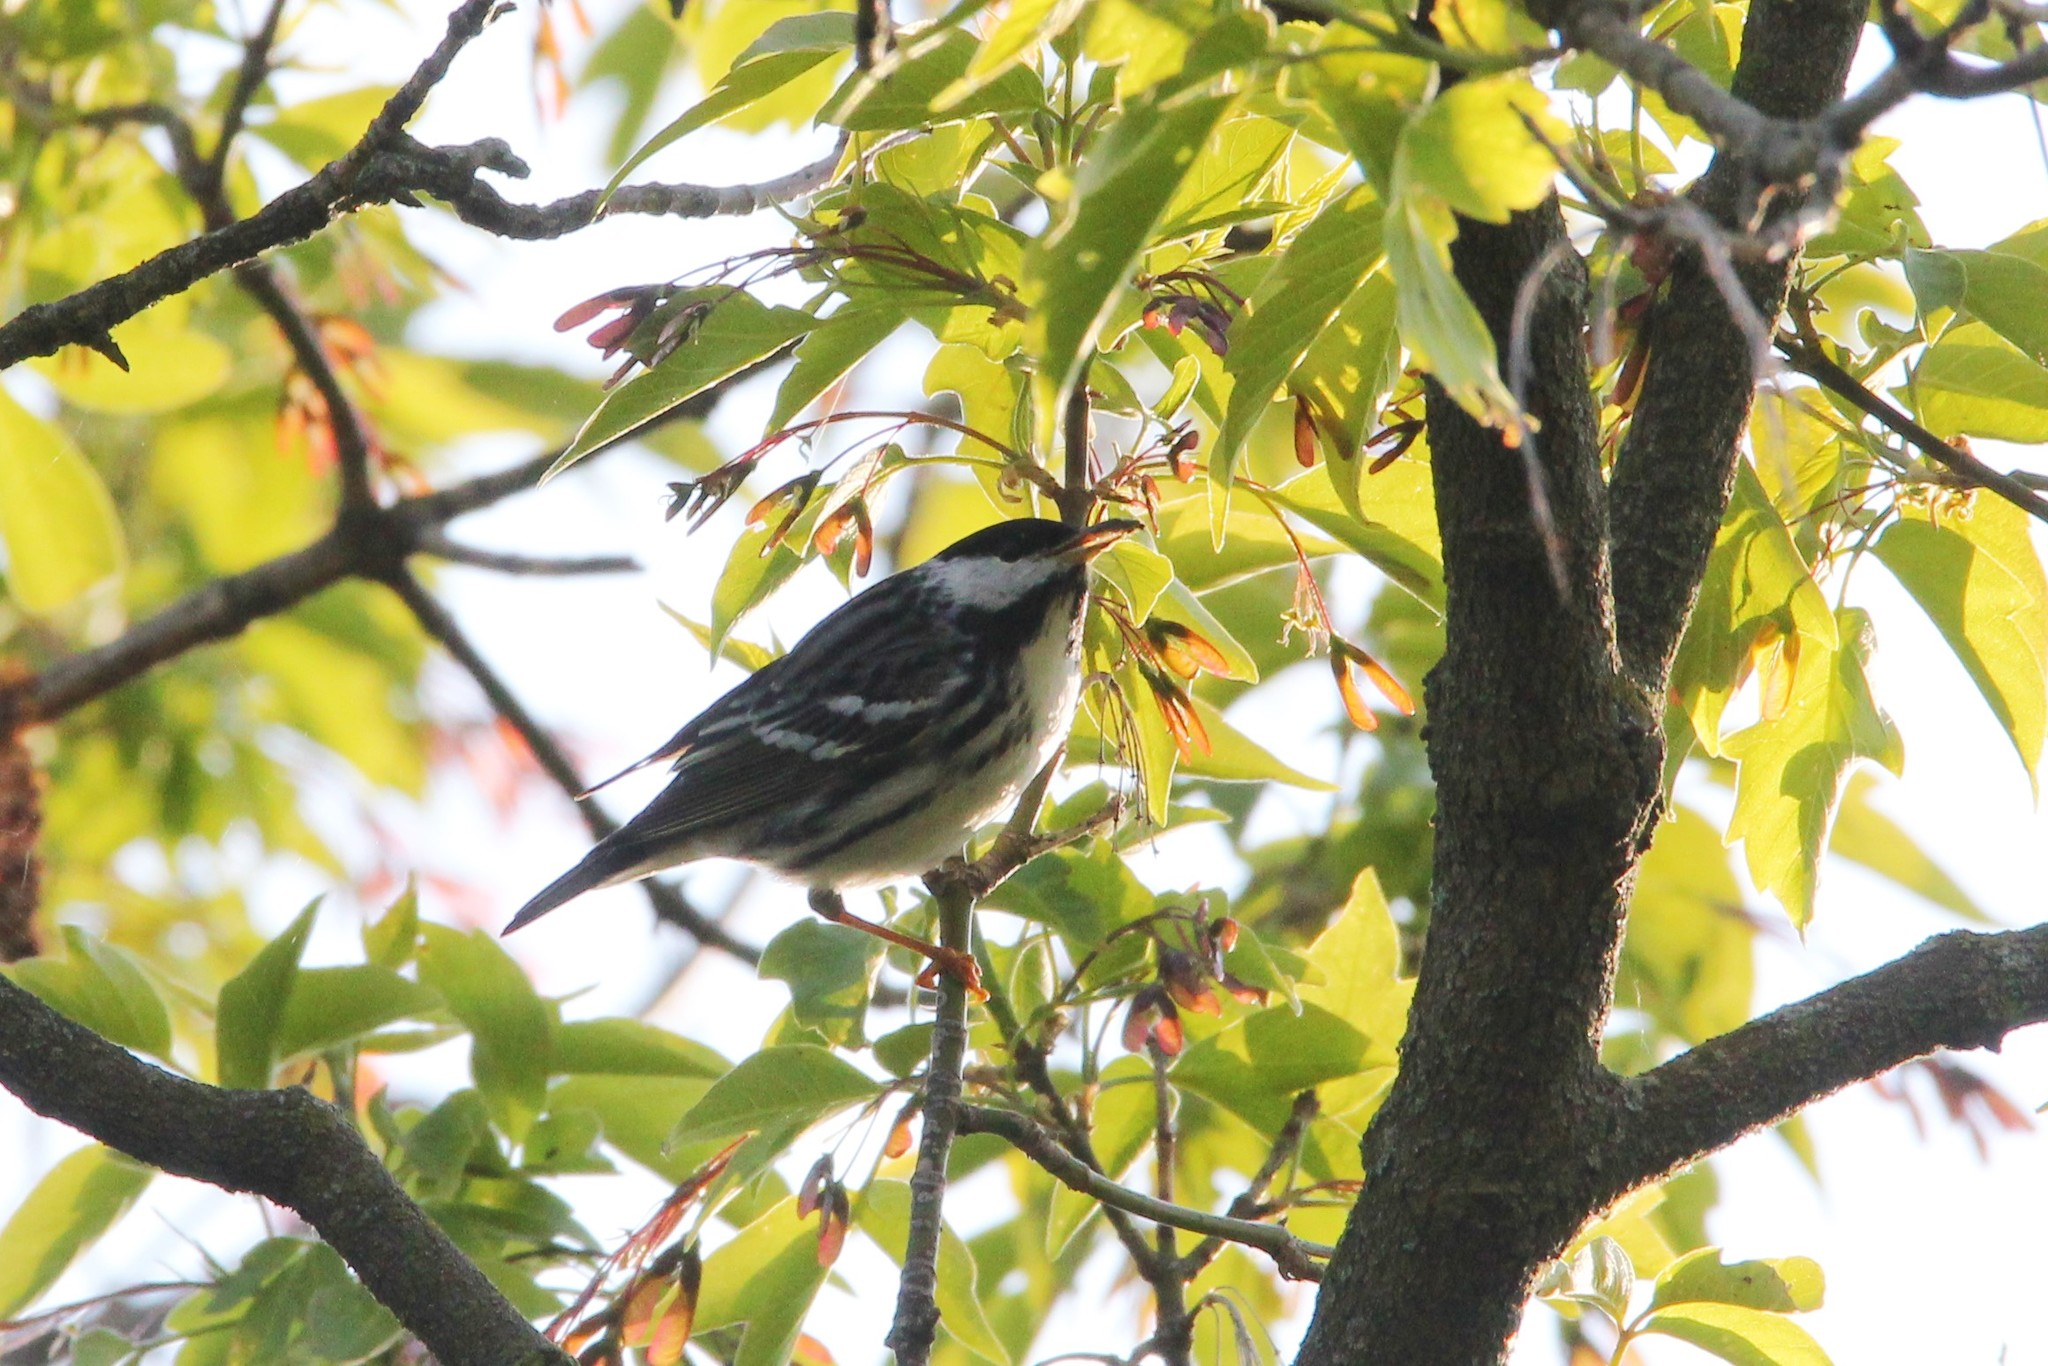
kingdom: Animalia
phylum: Chordata
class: Aves
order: Passeriformes
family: Parulidae
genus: Setophaga
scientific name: Setophaga striata
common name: Blackpoll warbler
